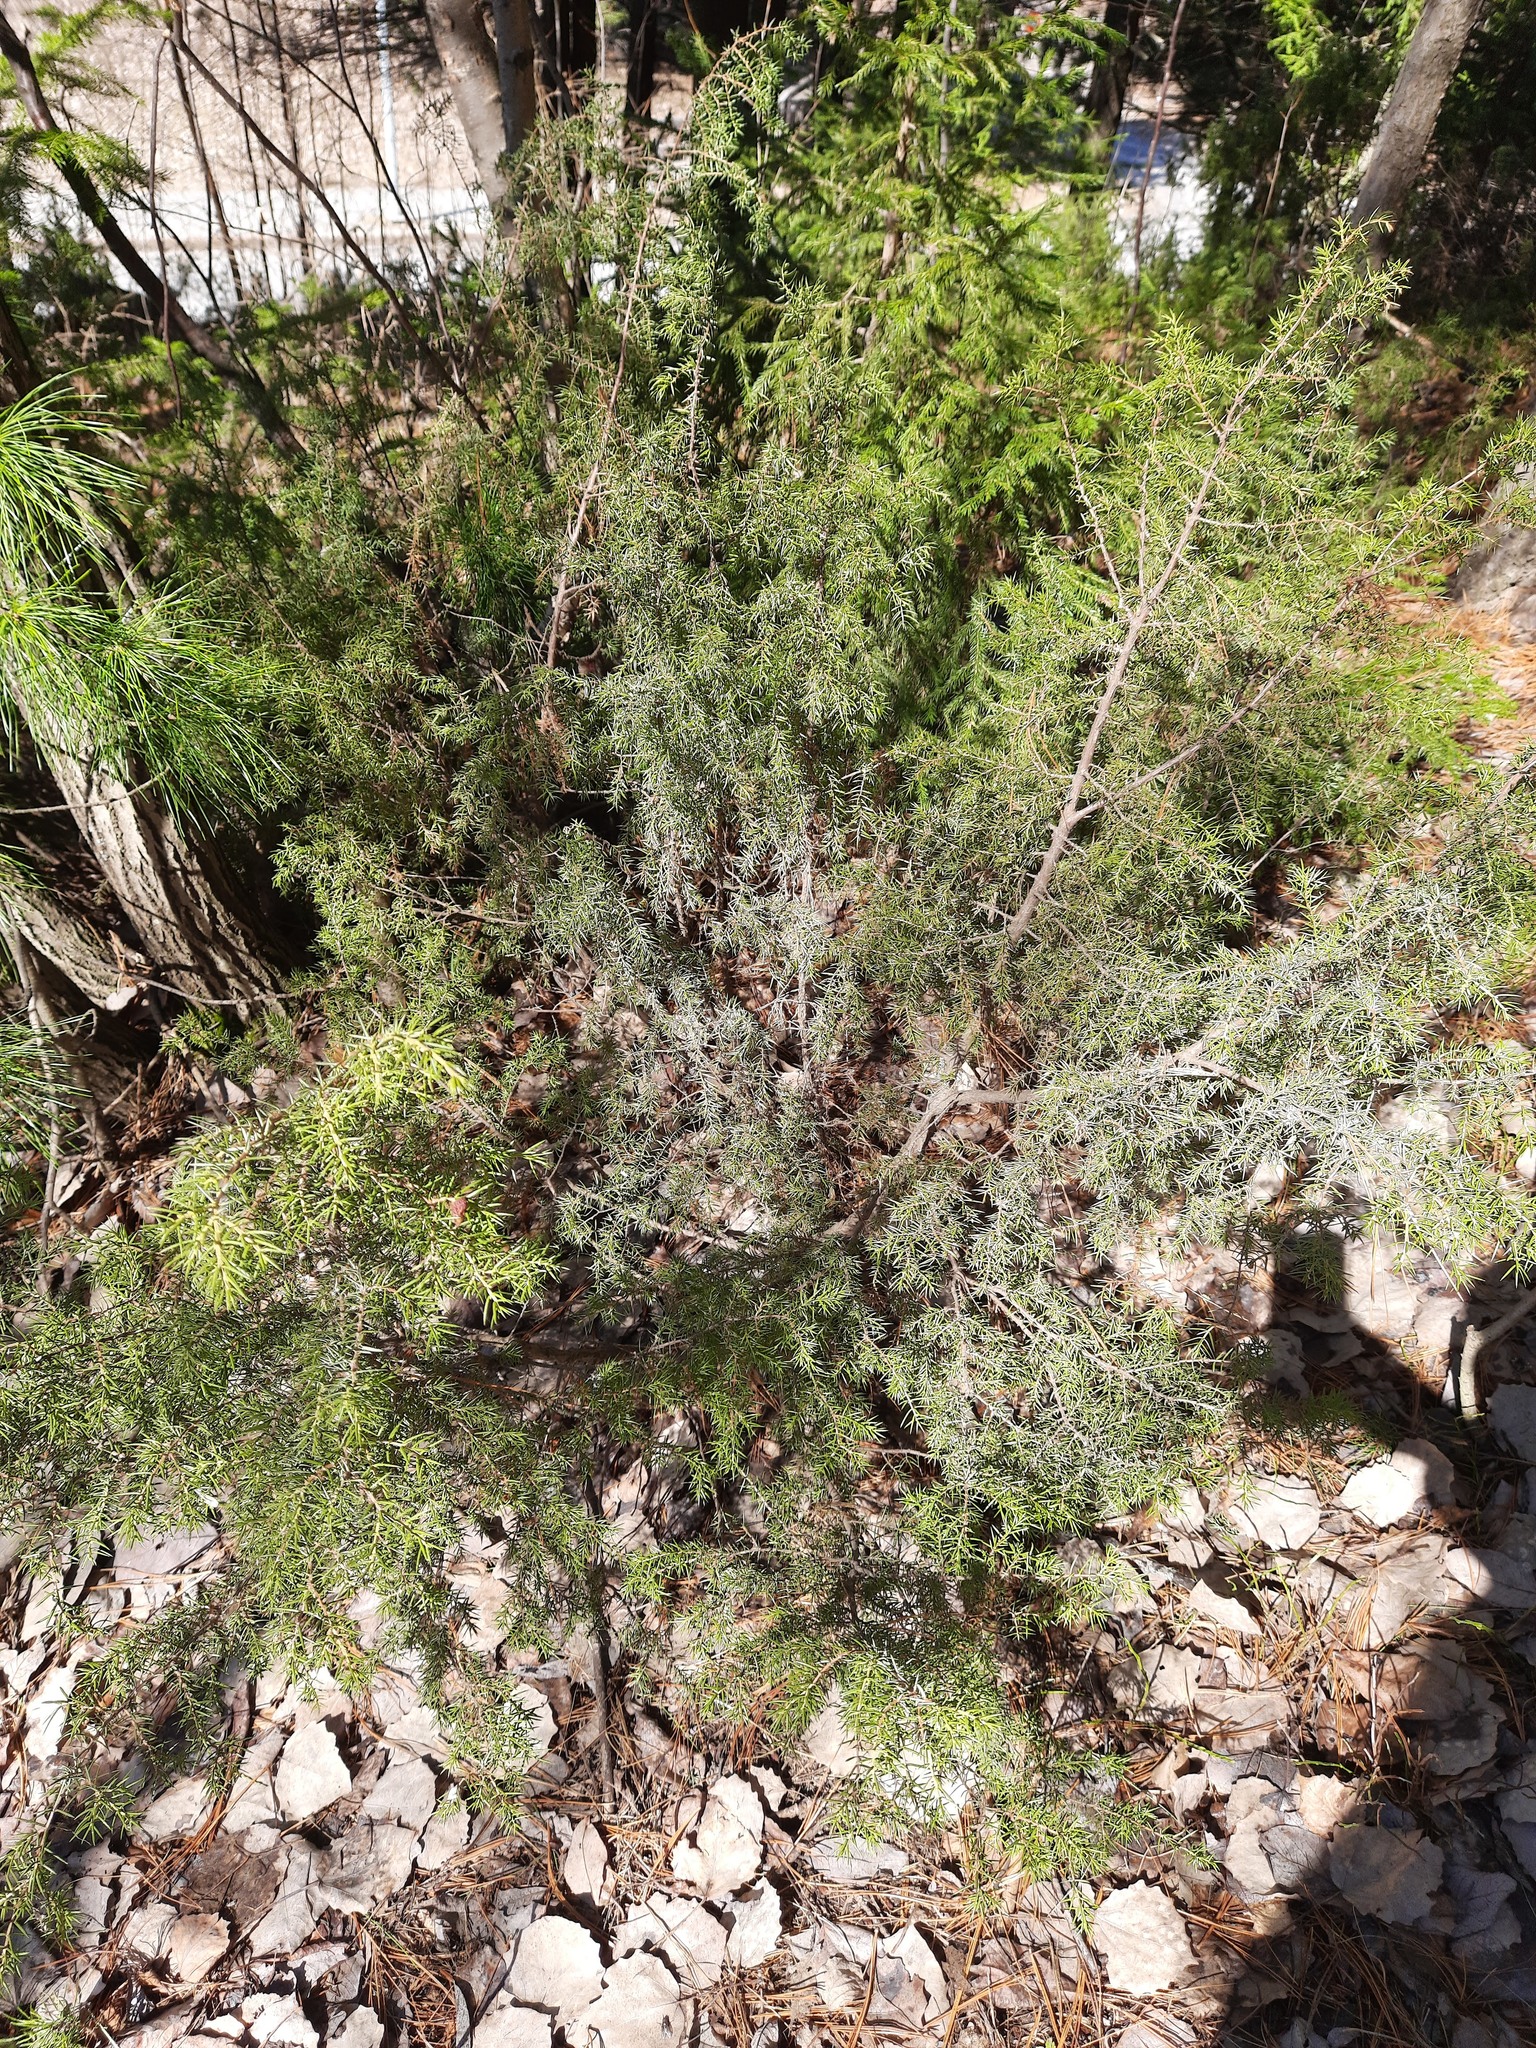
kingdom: Plantae
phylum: Tracheophyta
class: Pinopsida
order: Pinales
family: Cupressaceae
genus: Juniperus
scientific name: Juniperus communis
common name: Common juniper
